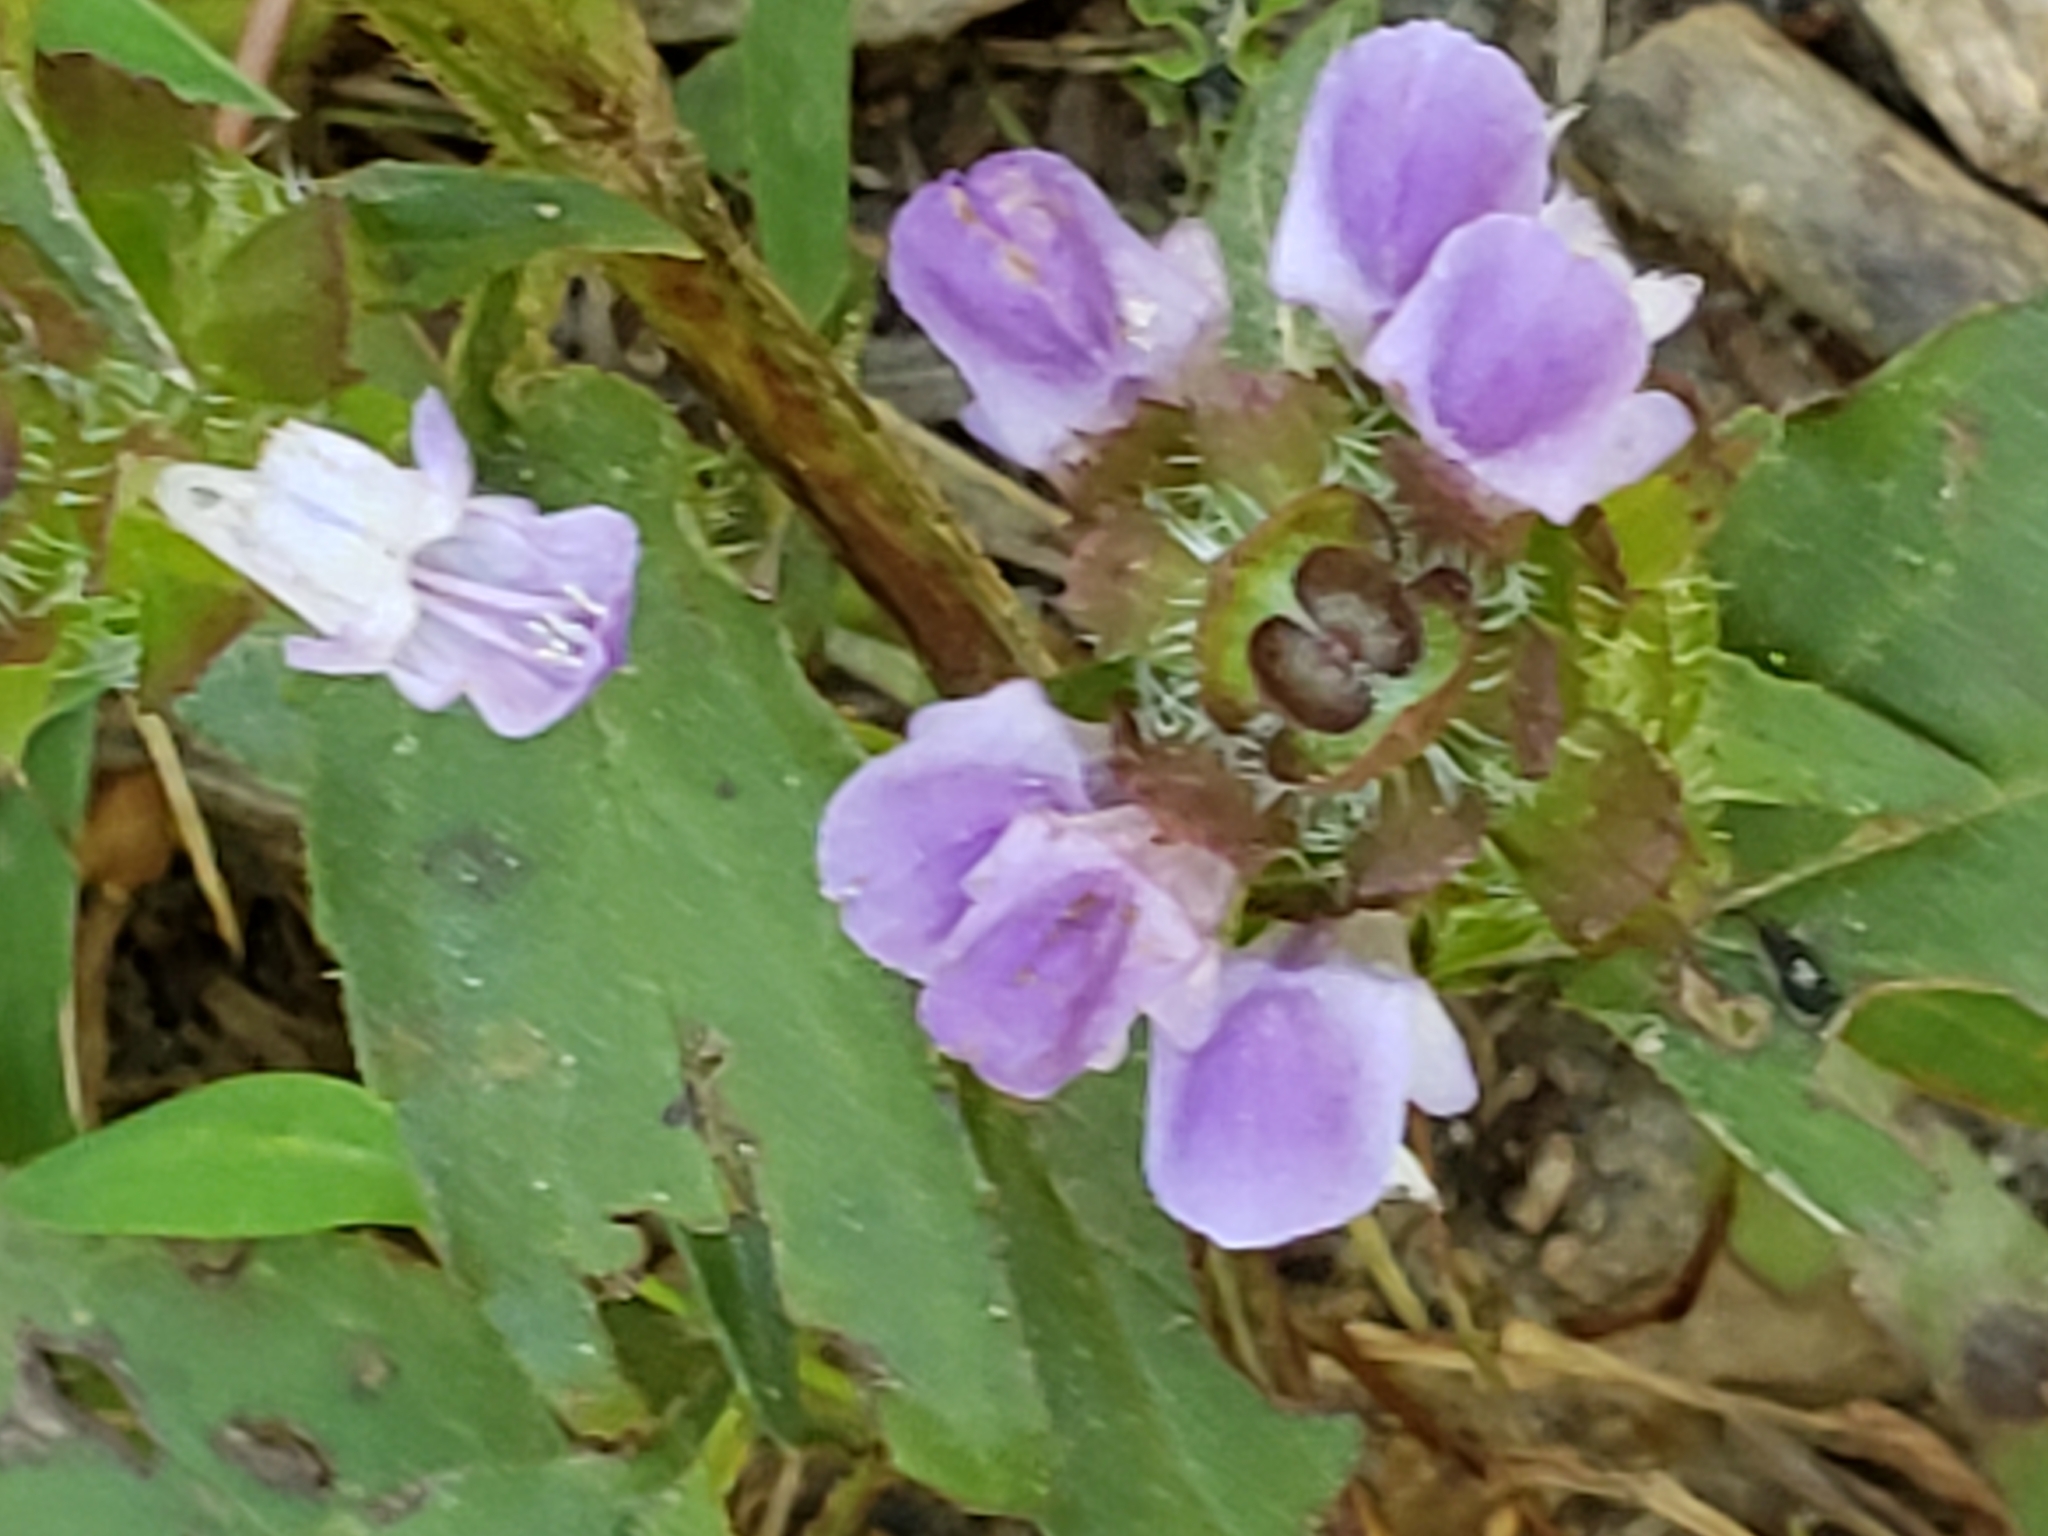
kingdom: Plantae
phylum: Tracheophyta
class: Magnoliopsida
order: Lamiales
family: Lamiaceae
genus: Prunella
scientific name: Prunella vulgaris
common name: Heal-all
